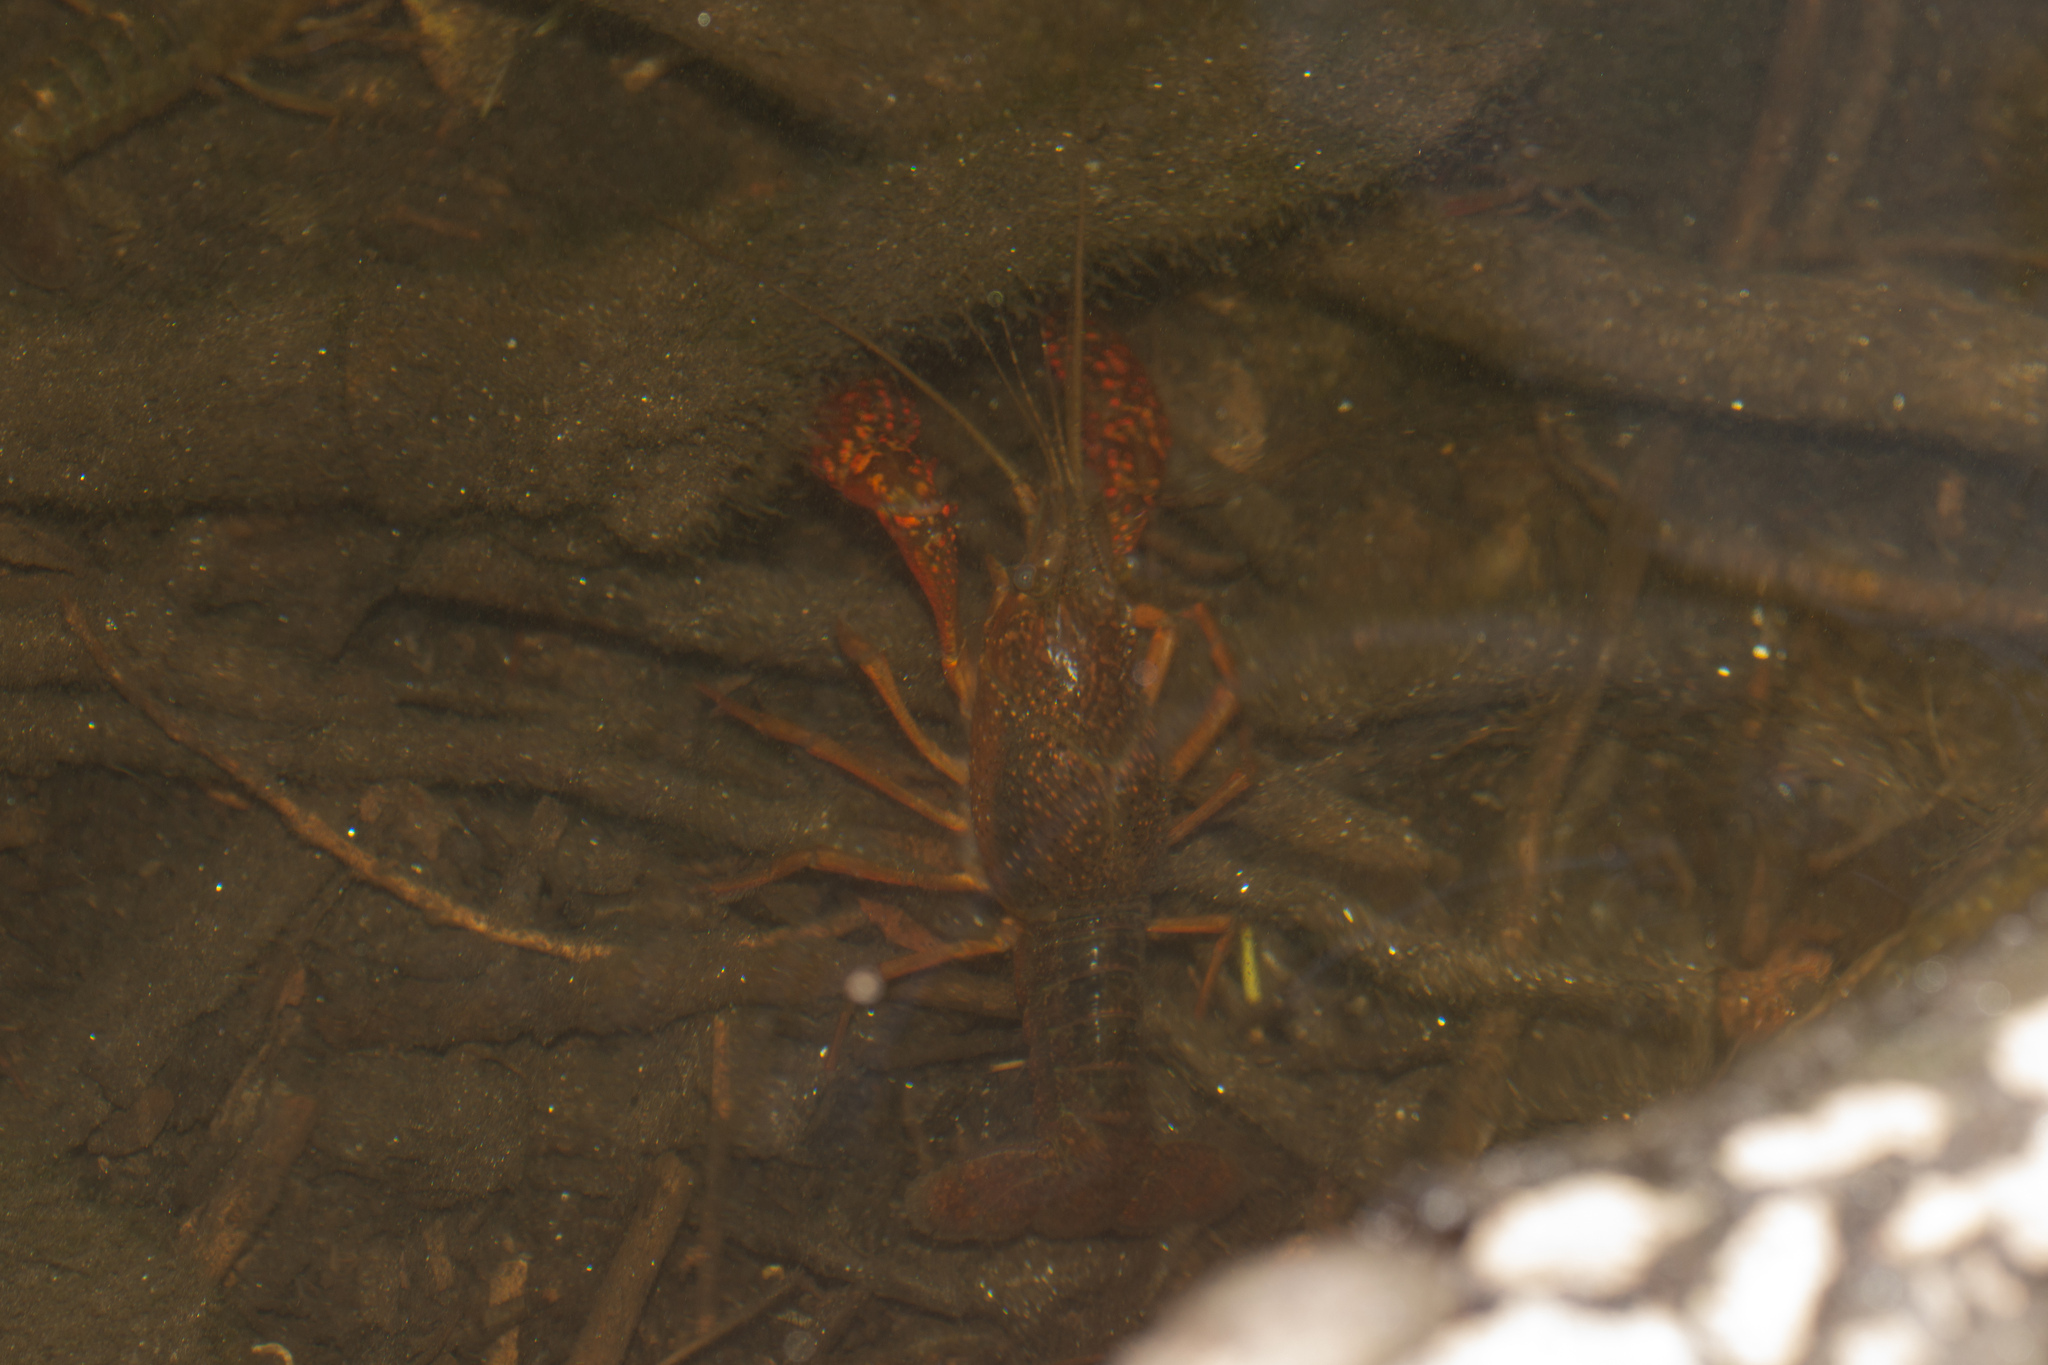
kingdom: Animalia
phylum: Arthropoda
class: Malacostraca
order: Decapoda
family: Cambaridae
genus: Procambarus
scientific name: Procambarus clarkii
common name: Red swamp crayfish
